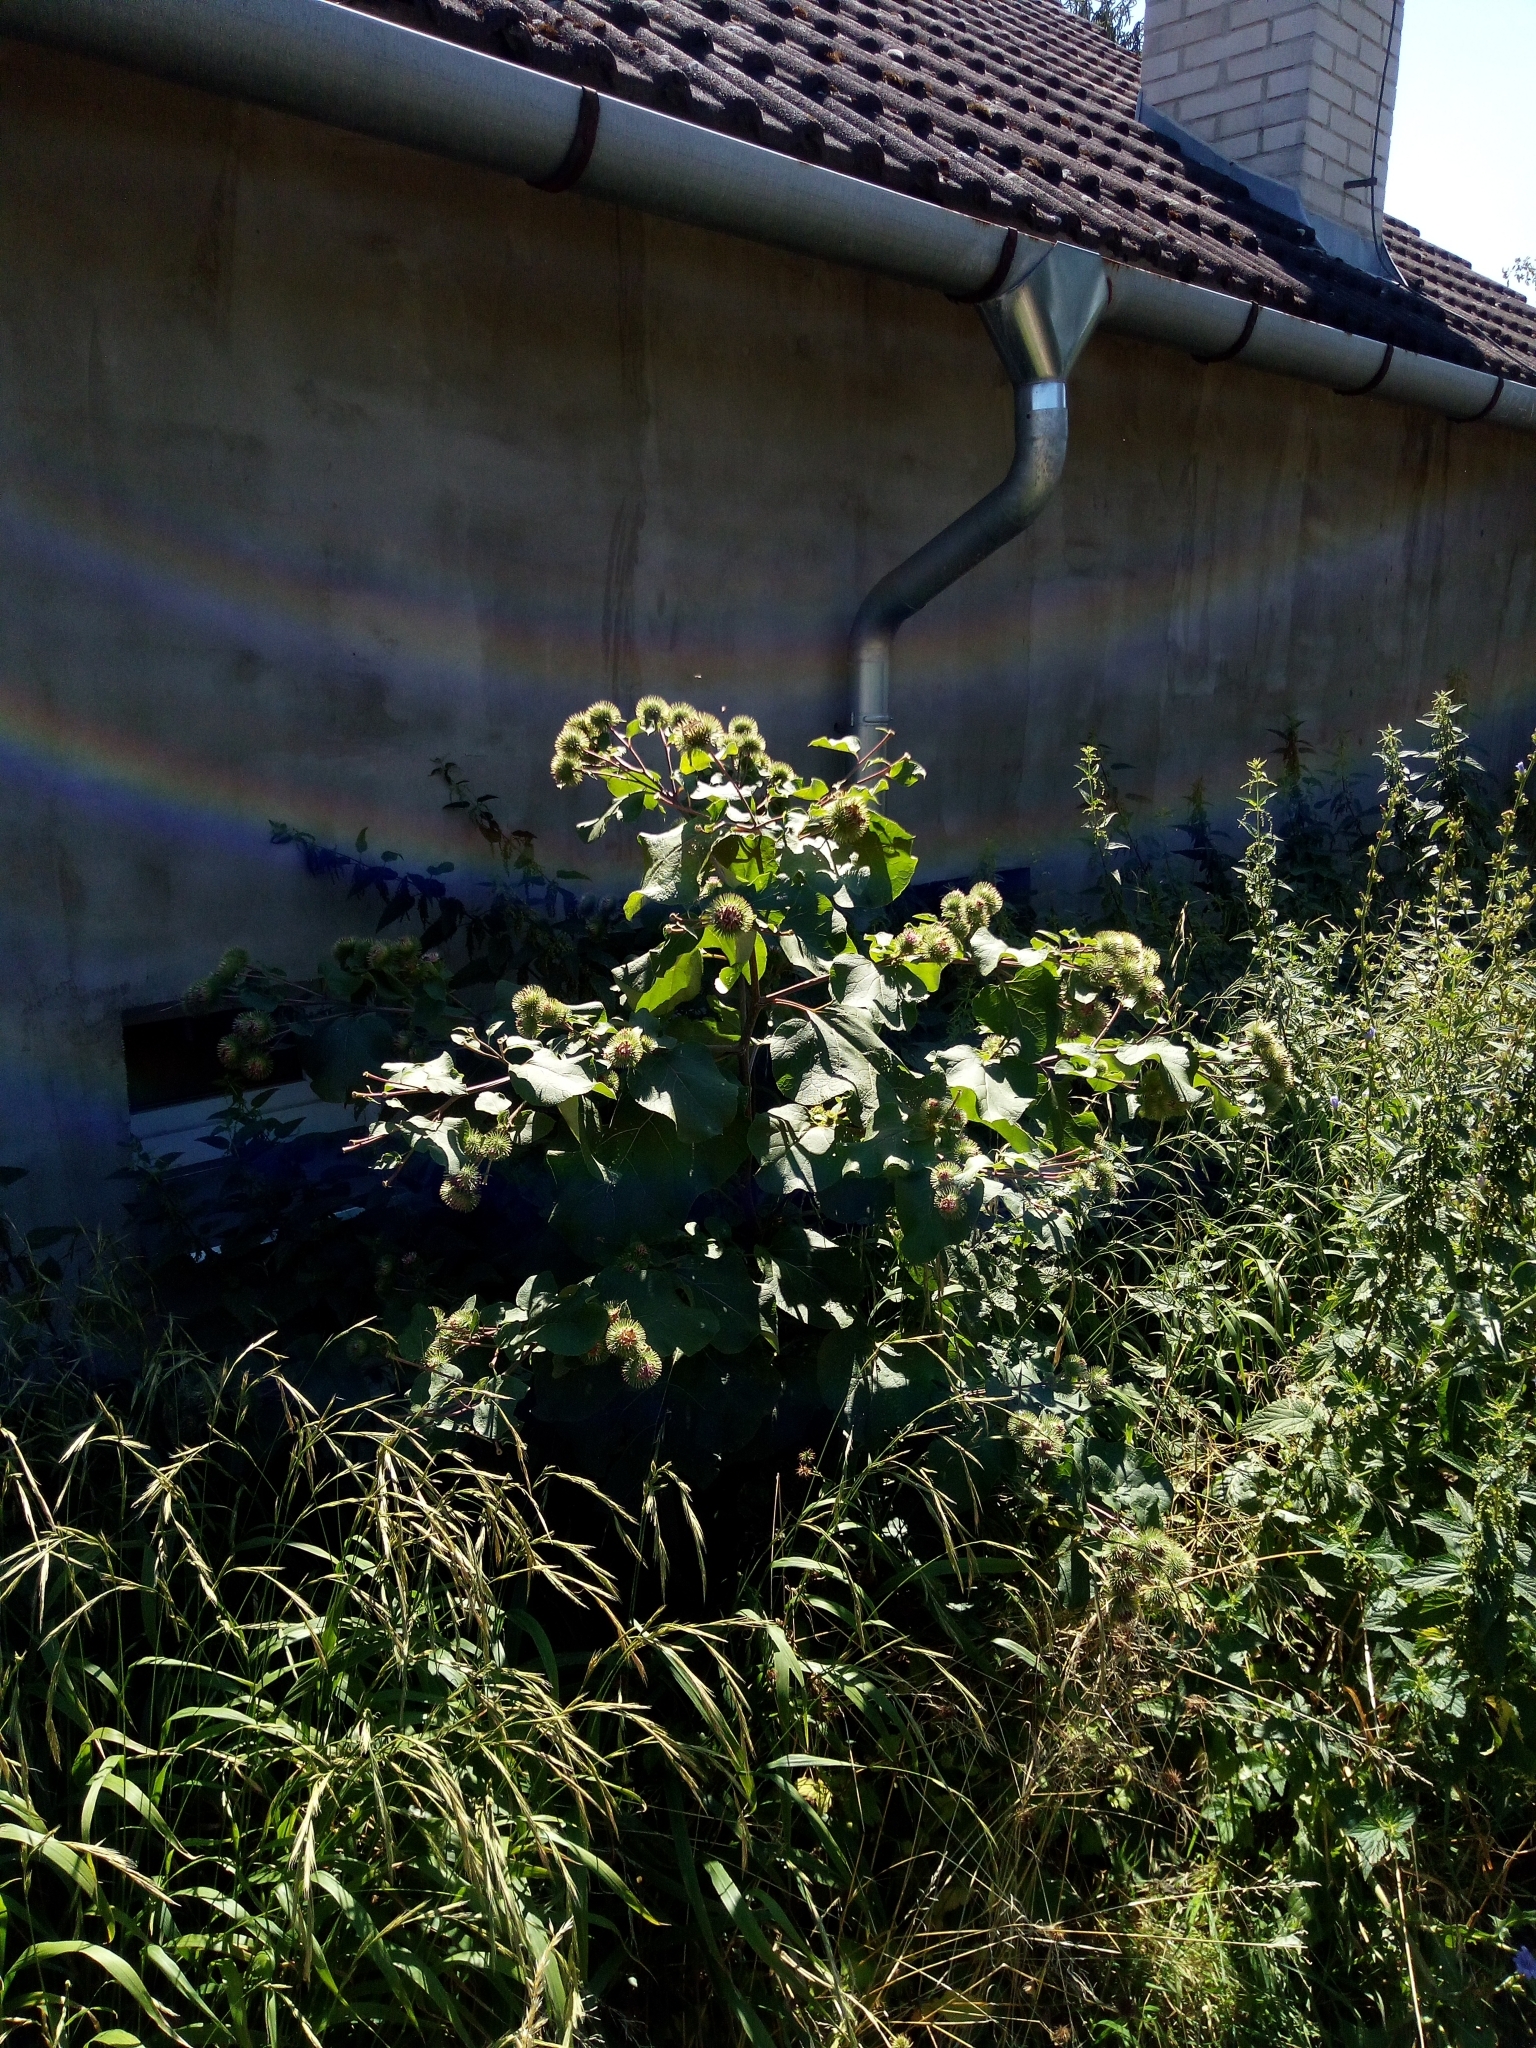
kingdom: Plantae
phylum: Tracheophyta
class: Magnoliopsida
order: Asterales
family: Asteraceae
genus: Arctium
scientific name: Arctium lappa
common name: Greater burdock
